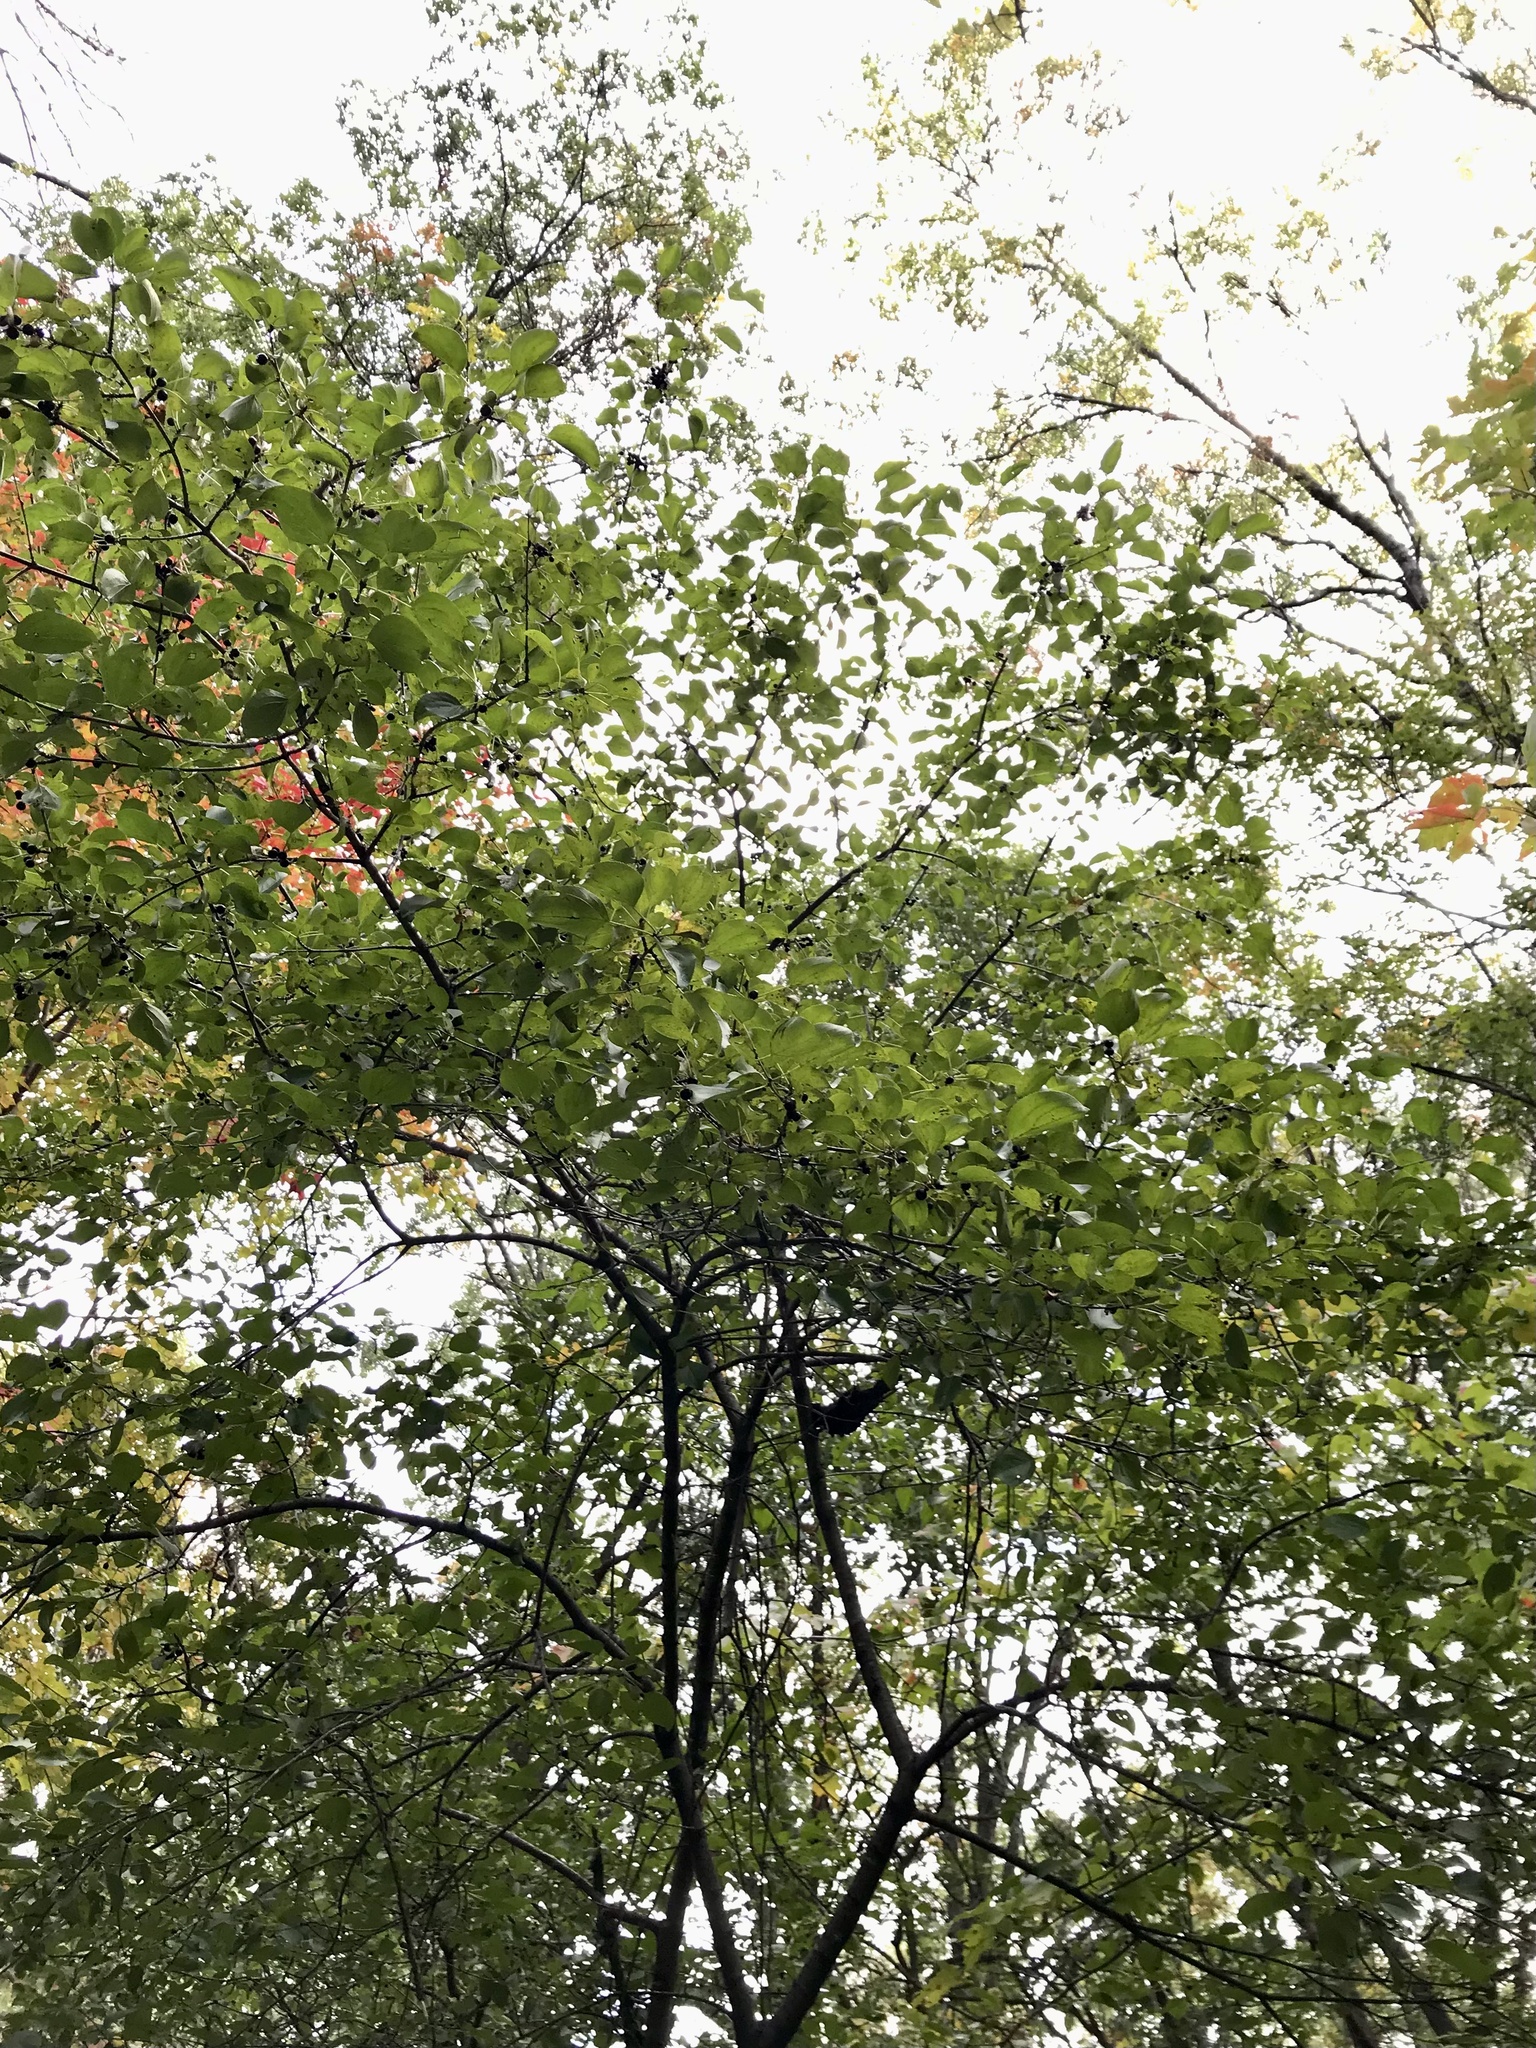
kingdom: Plantae
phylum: Tracheophyta
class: Magnoliopsida
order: Rosales
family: Rhamnaceae
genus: Rhamnus
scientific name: Rhamnus cathartica
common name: Common buckthorn
